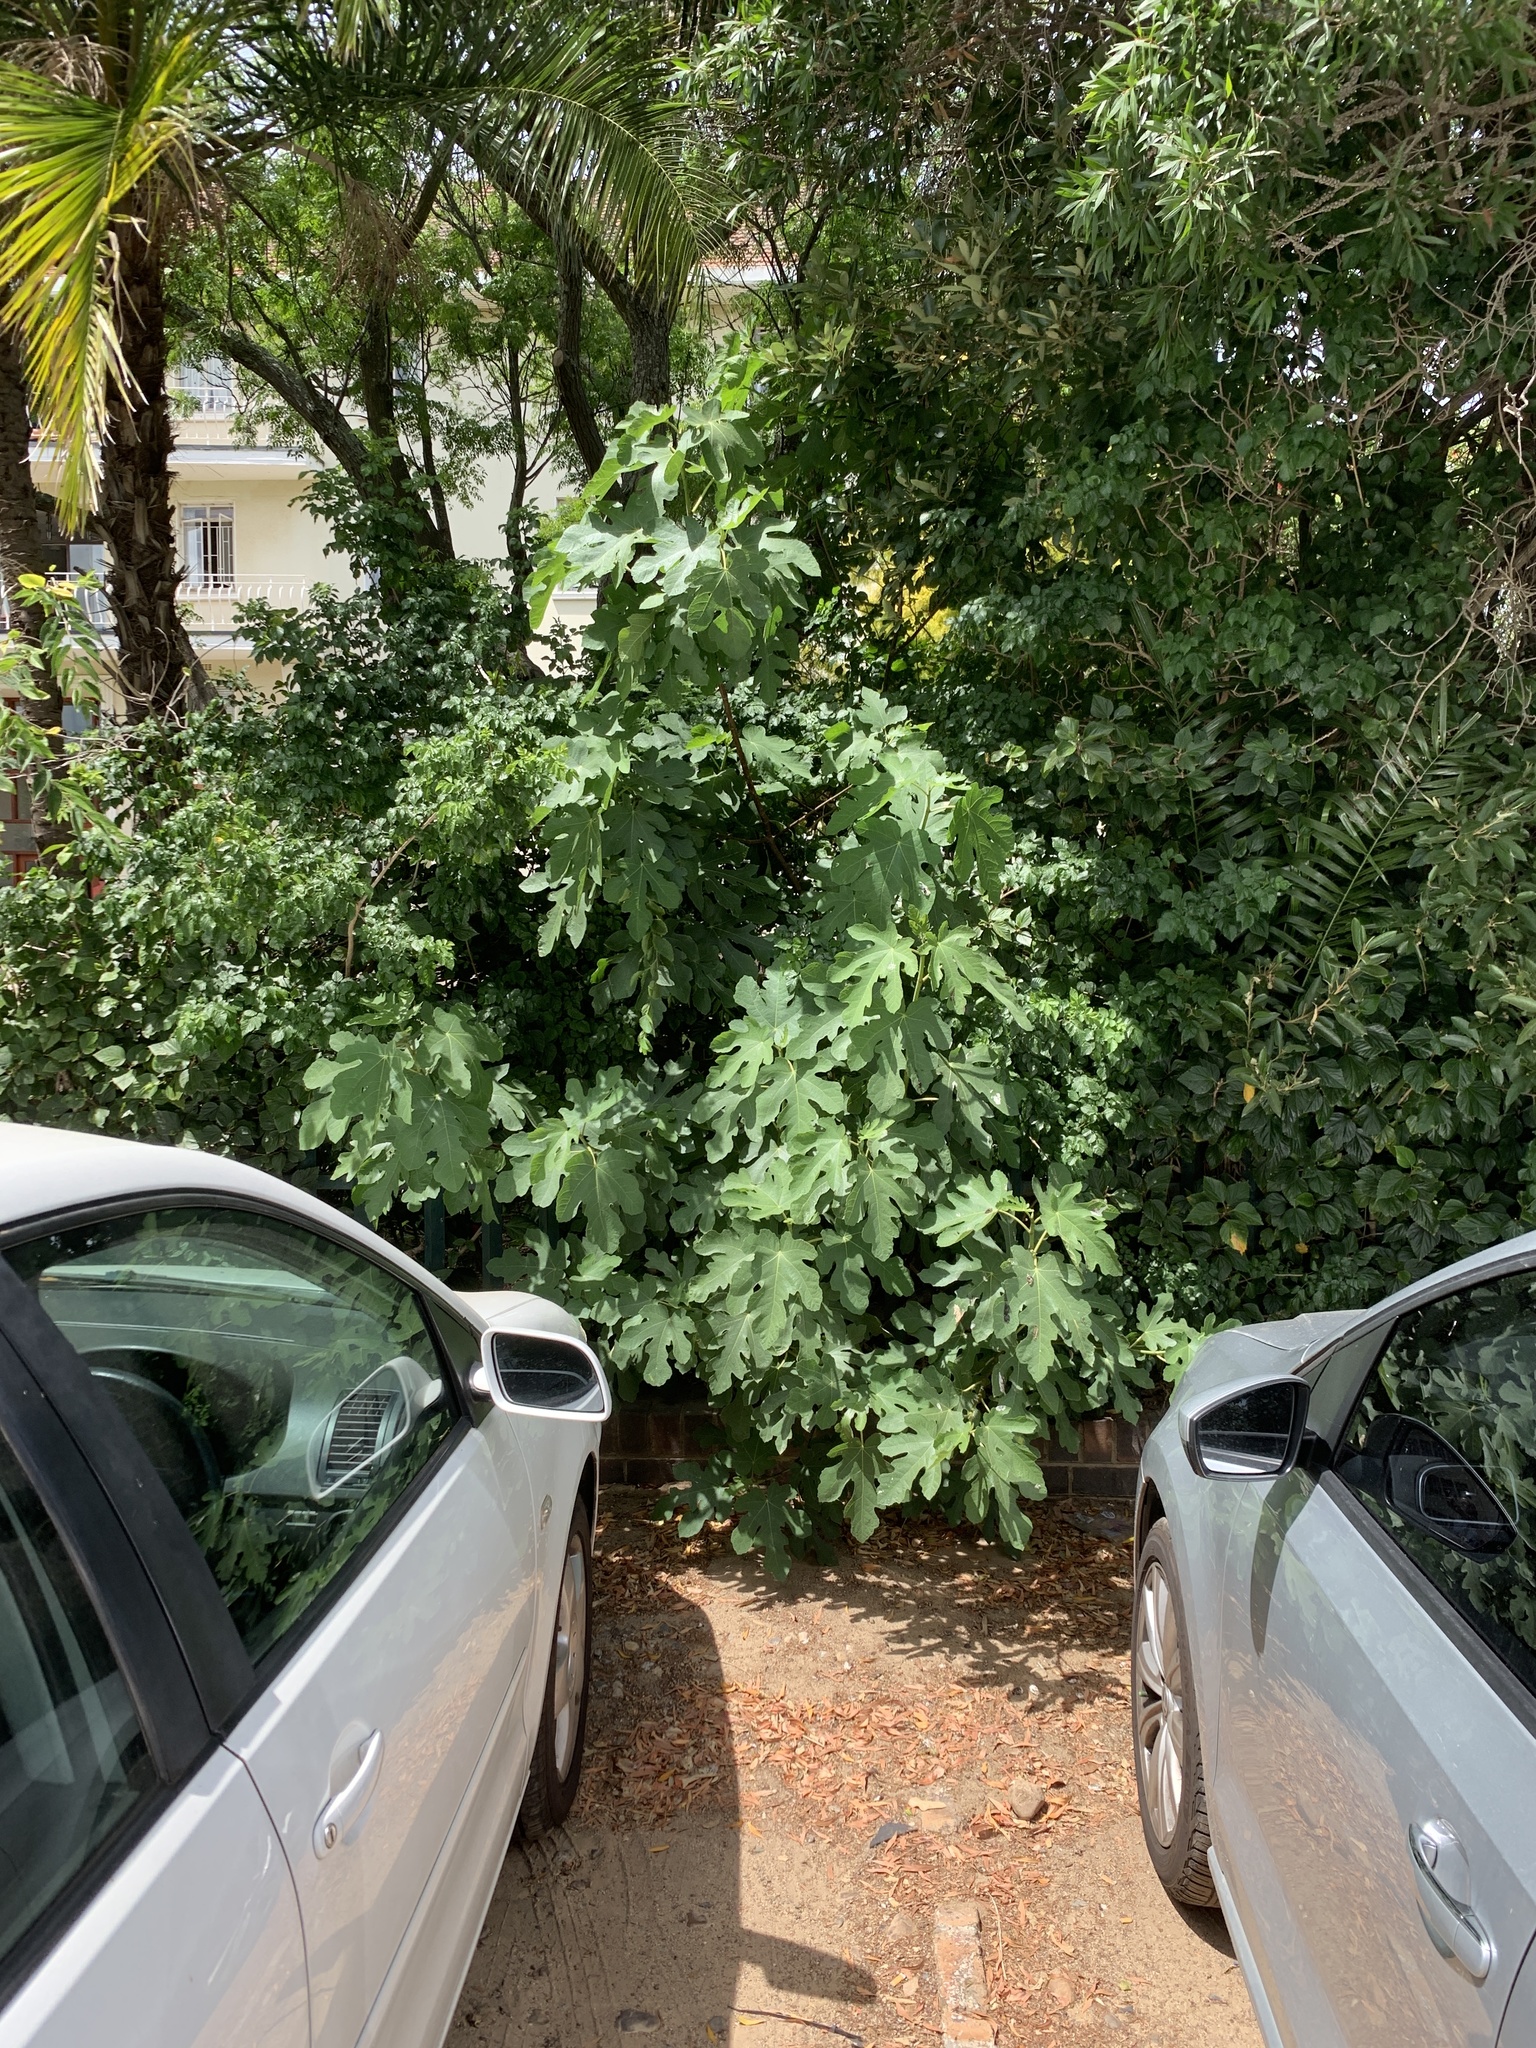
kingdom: Plantae
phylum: Tracheophyta
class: Magnoliopsida
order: Rosales
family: Moraceae
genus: Ficus
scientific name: Ficus carica
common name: Fig
